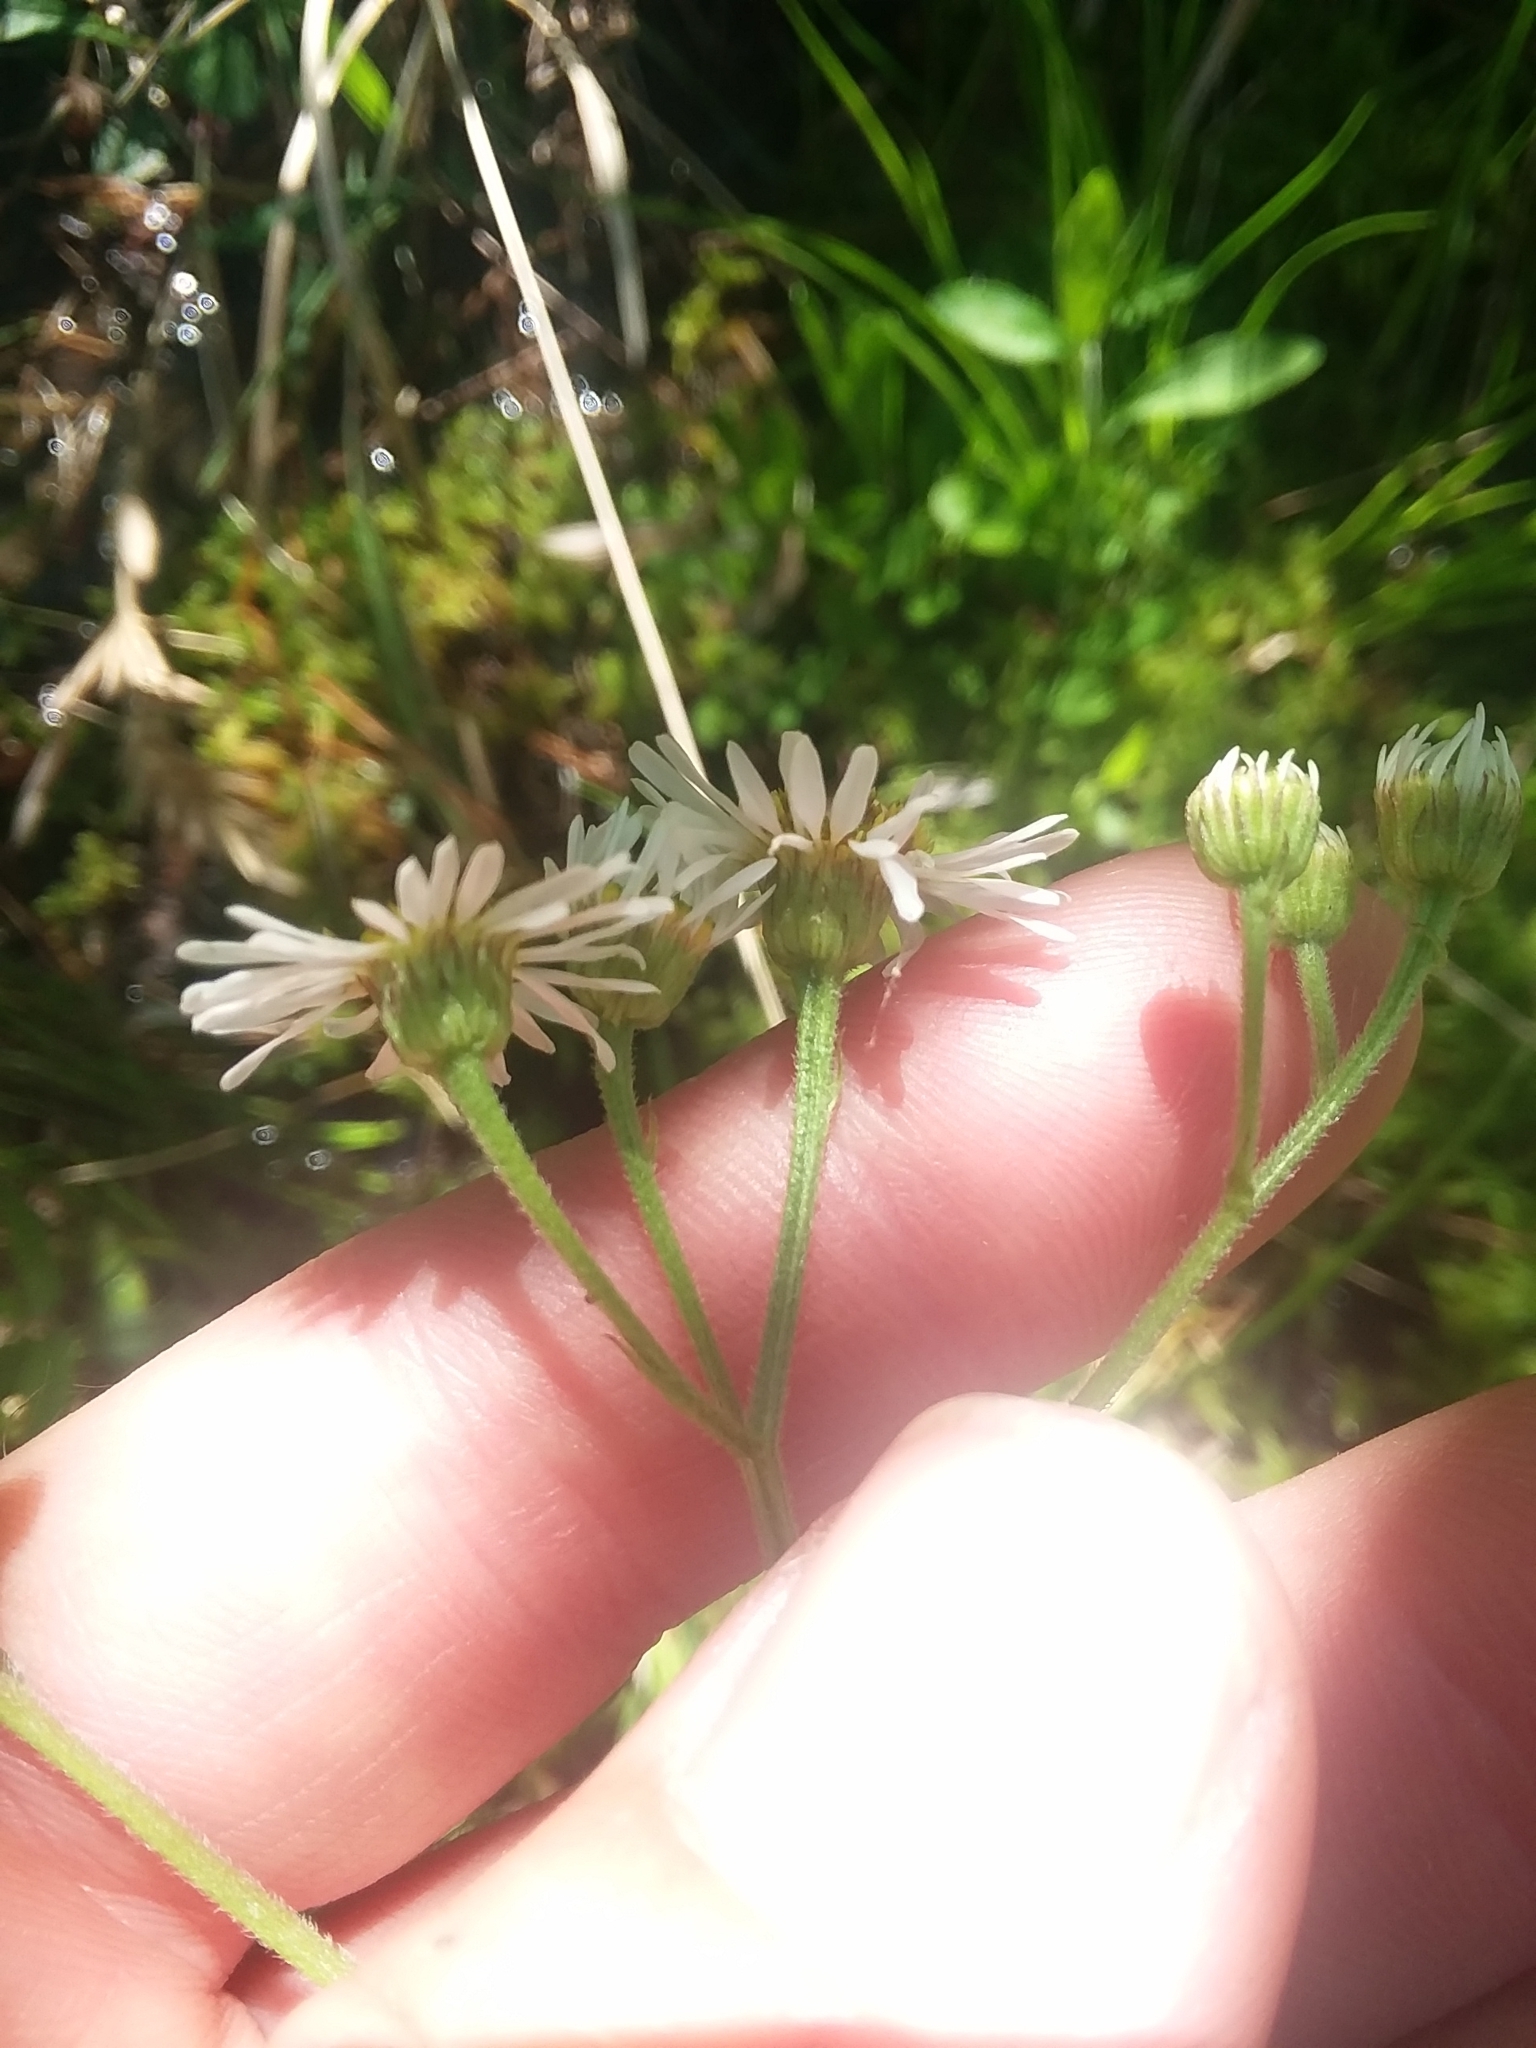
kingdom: Plantae
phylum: Tracheophyta
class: Magnoliopsida
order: Asterales
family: Asteraceae
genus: Erigeron
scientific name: Erigeron vernus
